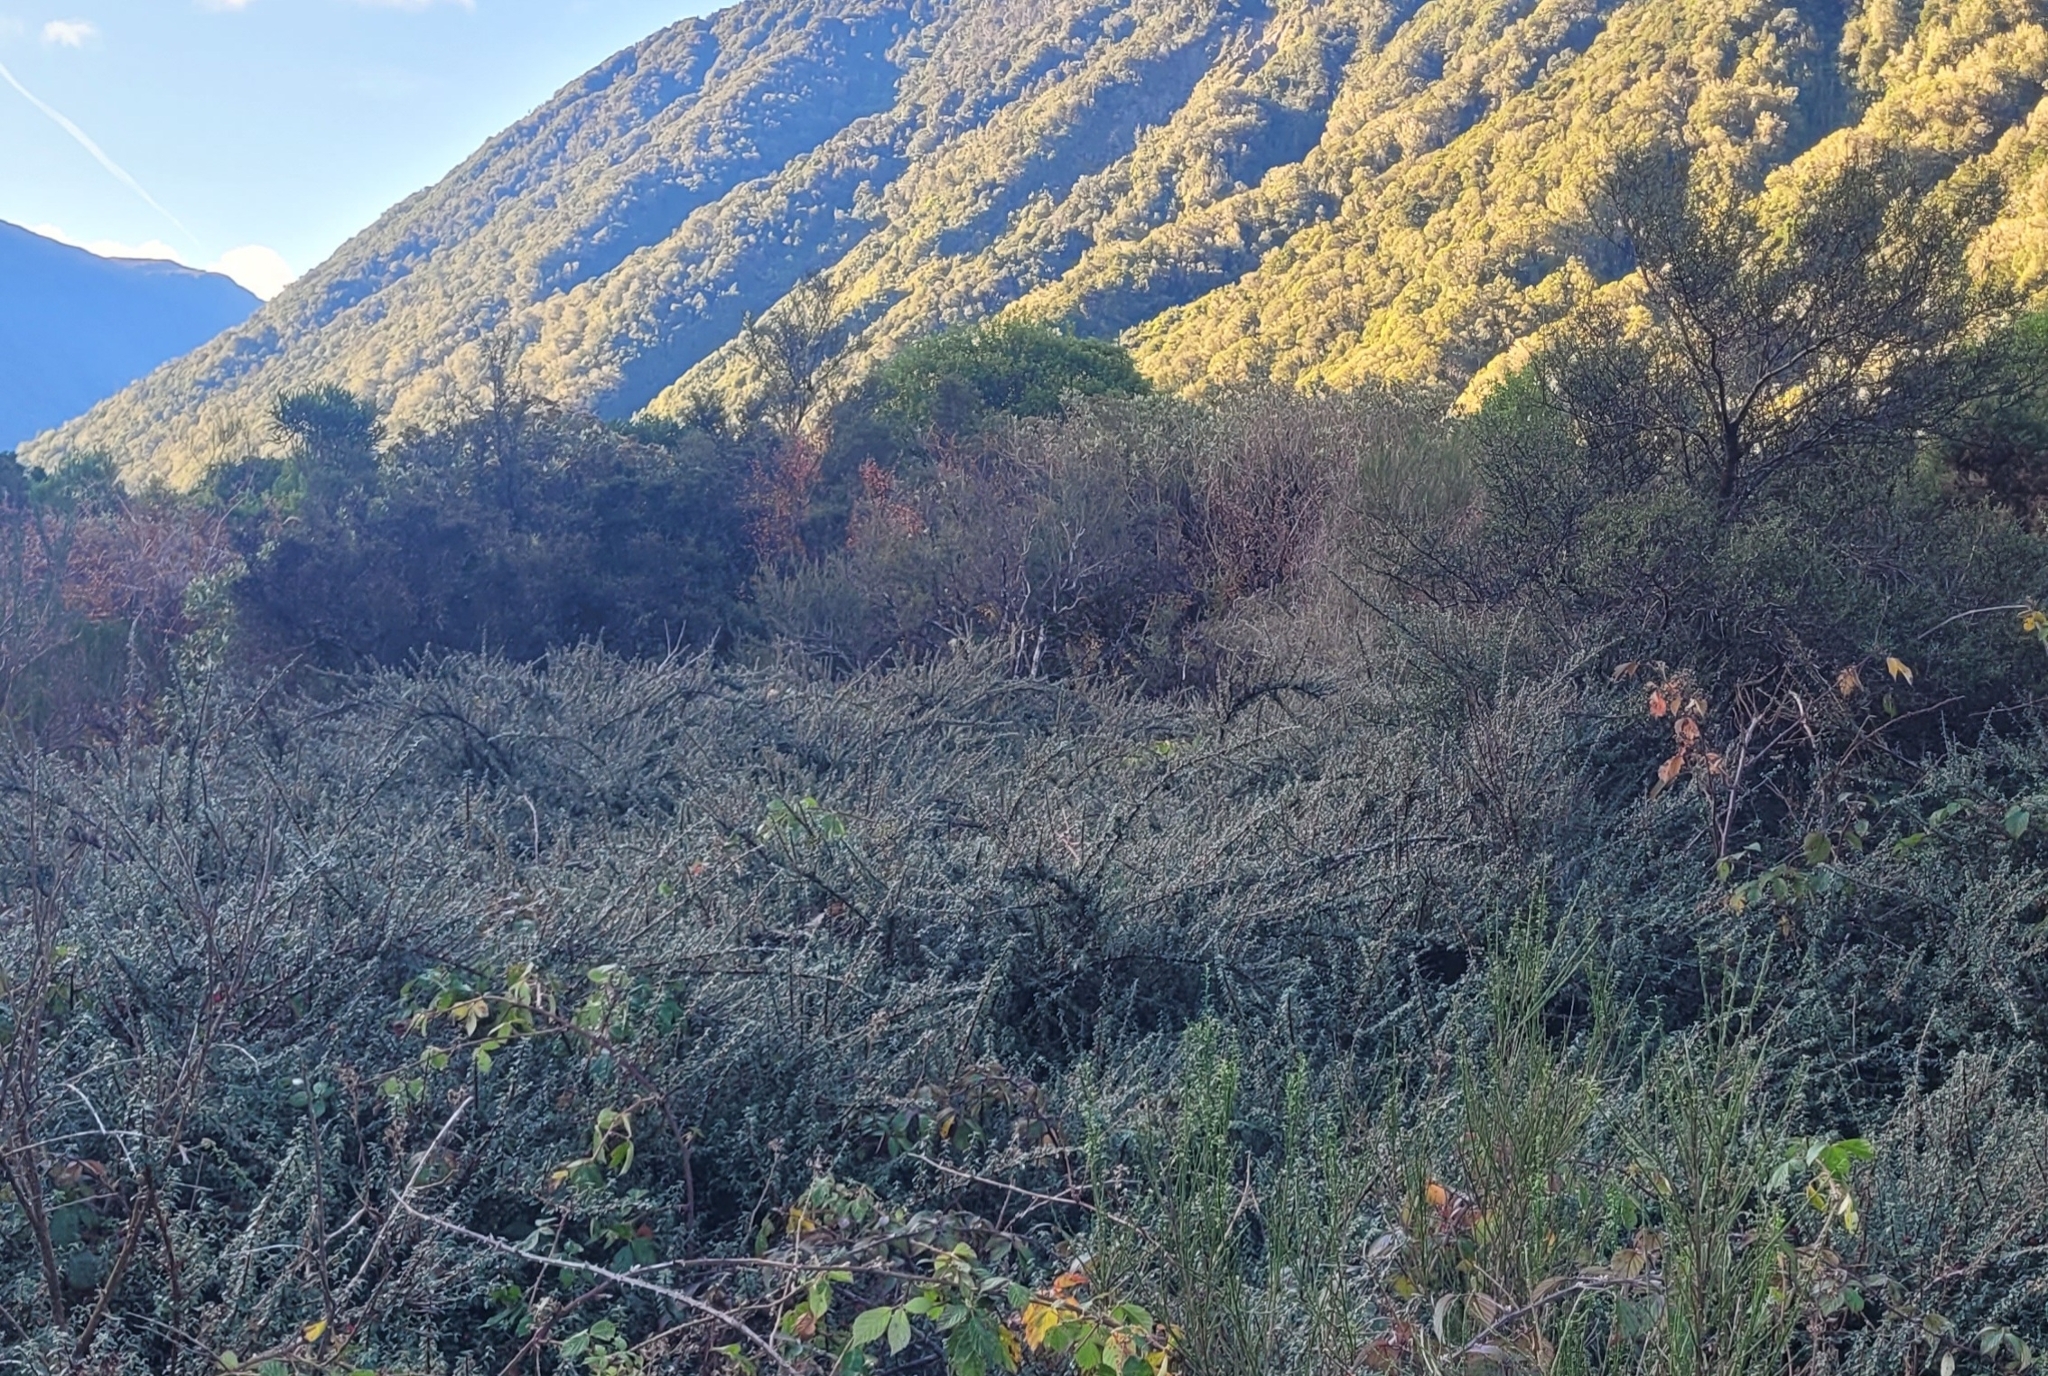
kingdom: Plantae
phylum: Tracheophyta
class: Magnoliopsida
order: Rosales
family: Rosaceae
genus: Cotoneaster
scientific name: Cotoneaster horizontalis
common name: Wall cotoneaster
